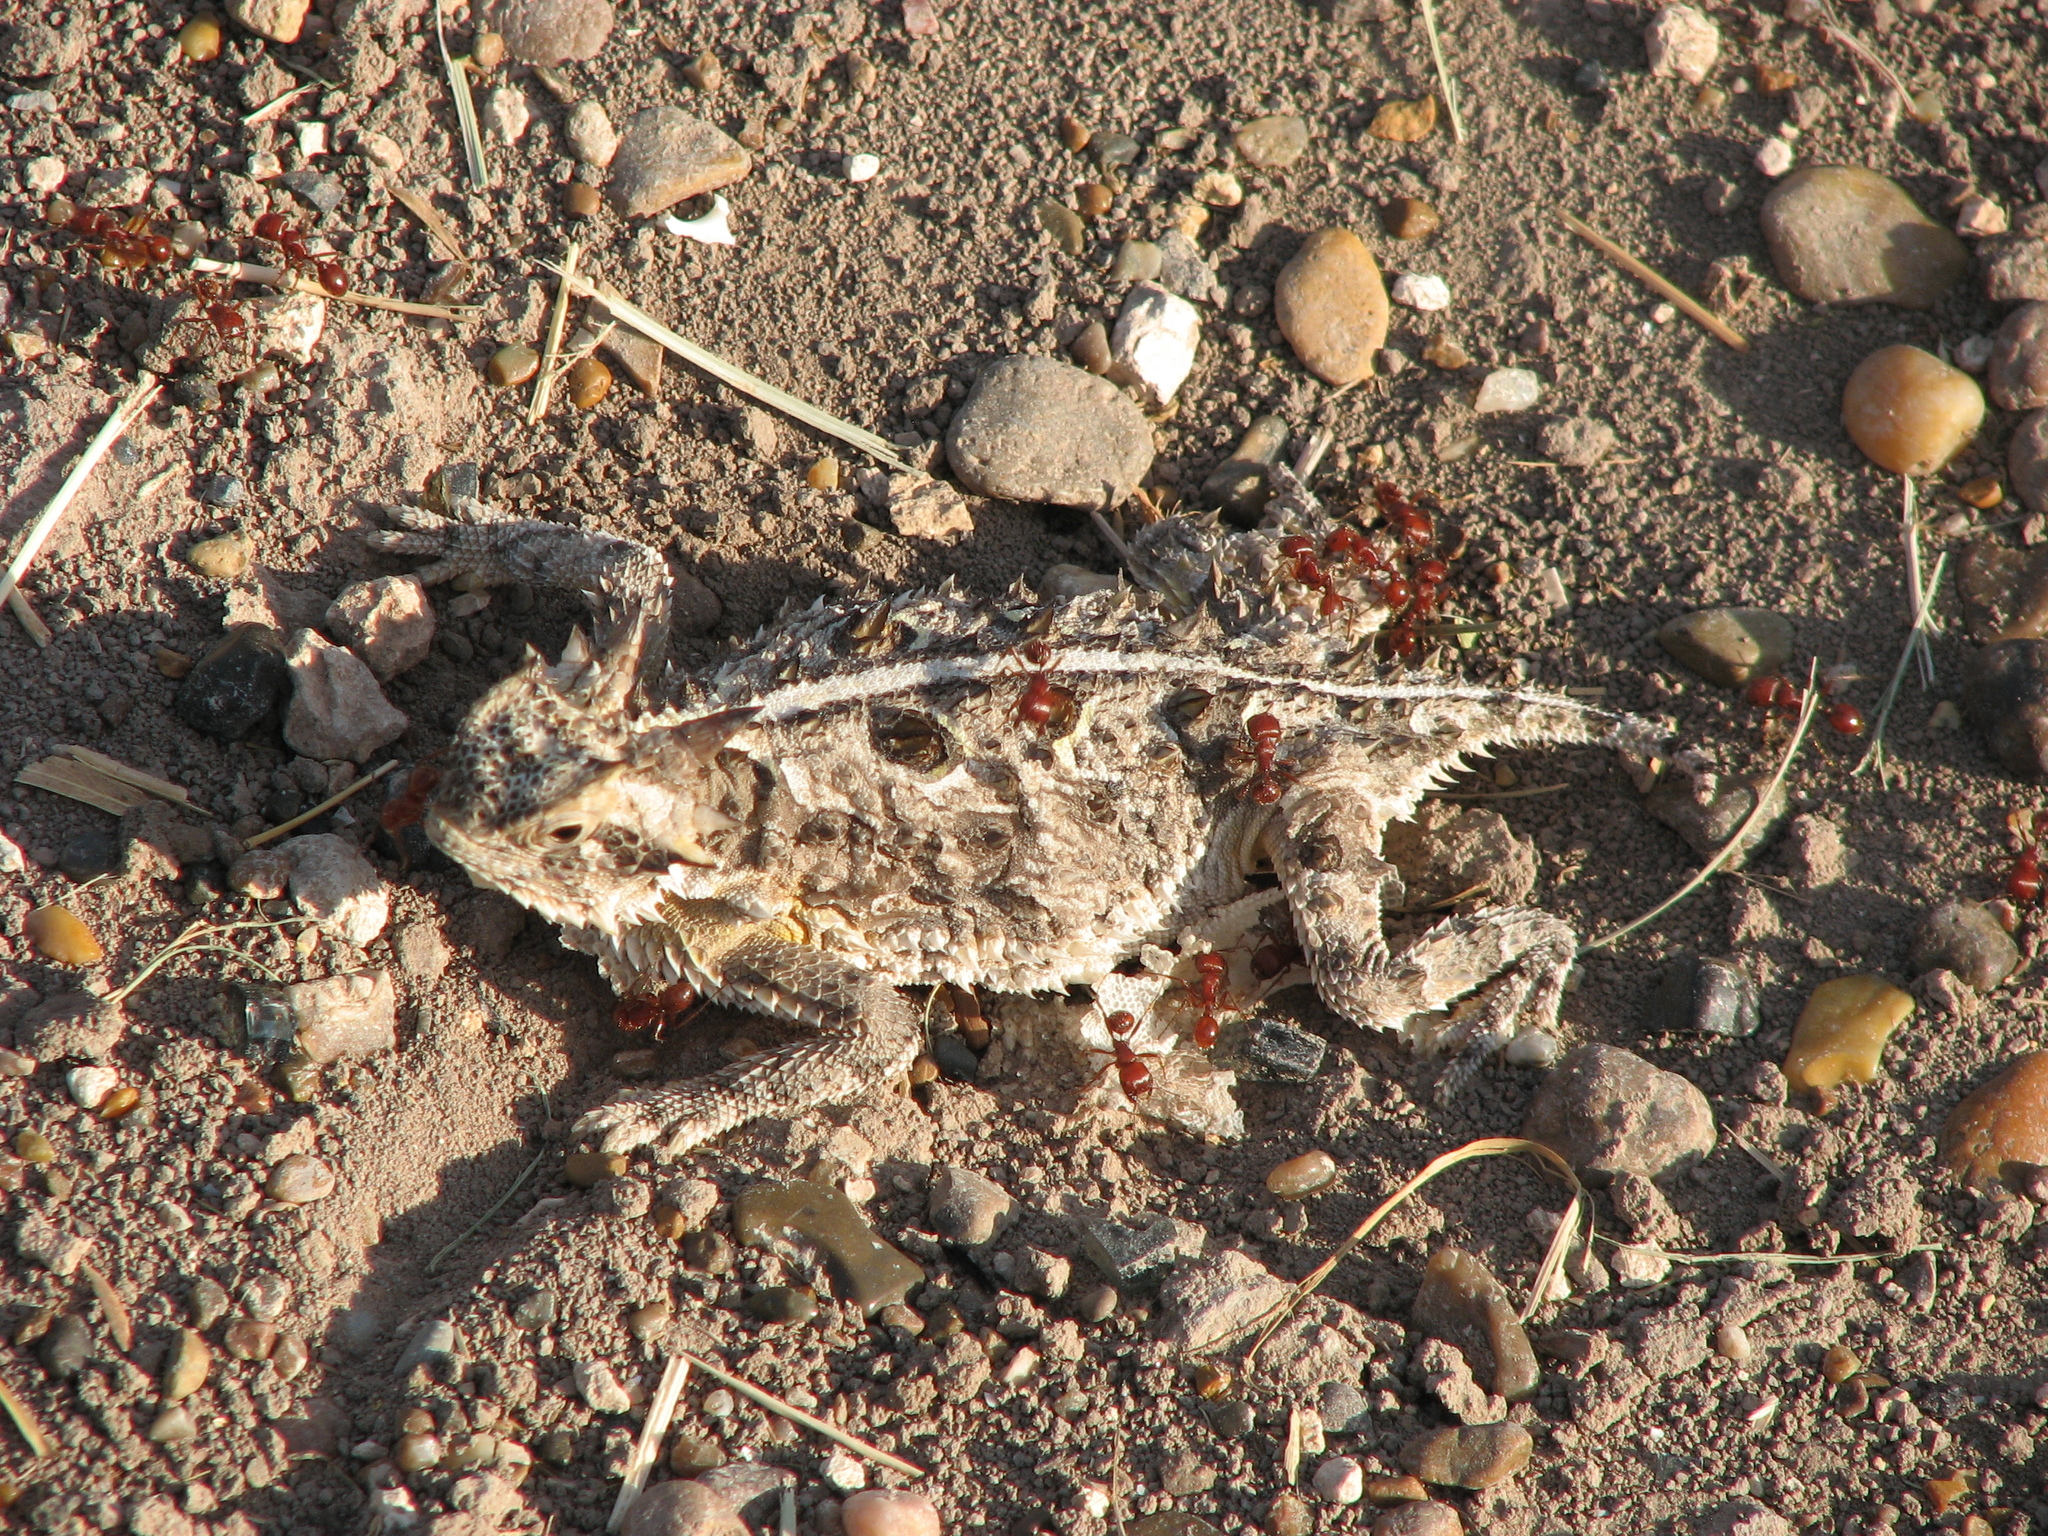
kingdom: Animalia
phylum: Chordata
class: Squamata
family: Phrynosomatidae
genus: Phrynosoma
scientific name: Phrynosoma cornutum
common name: Texas horned lizard
